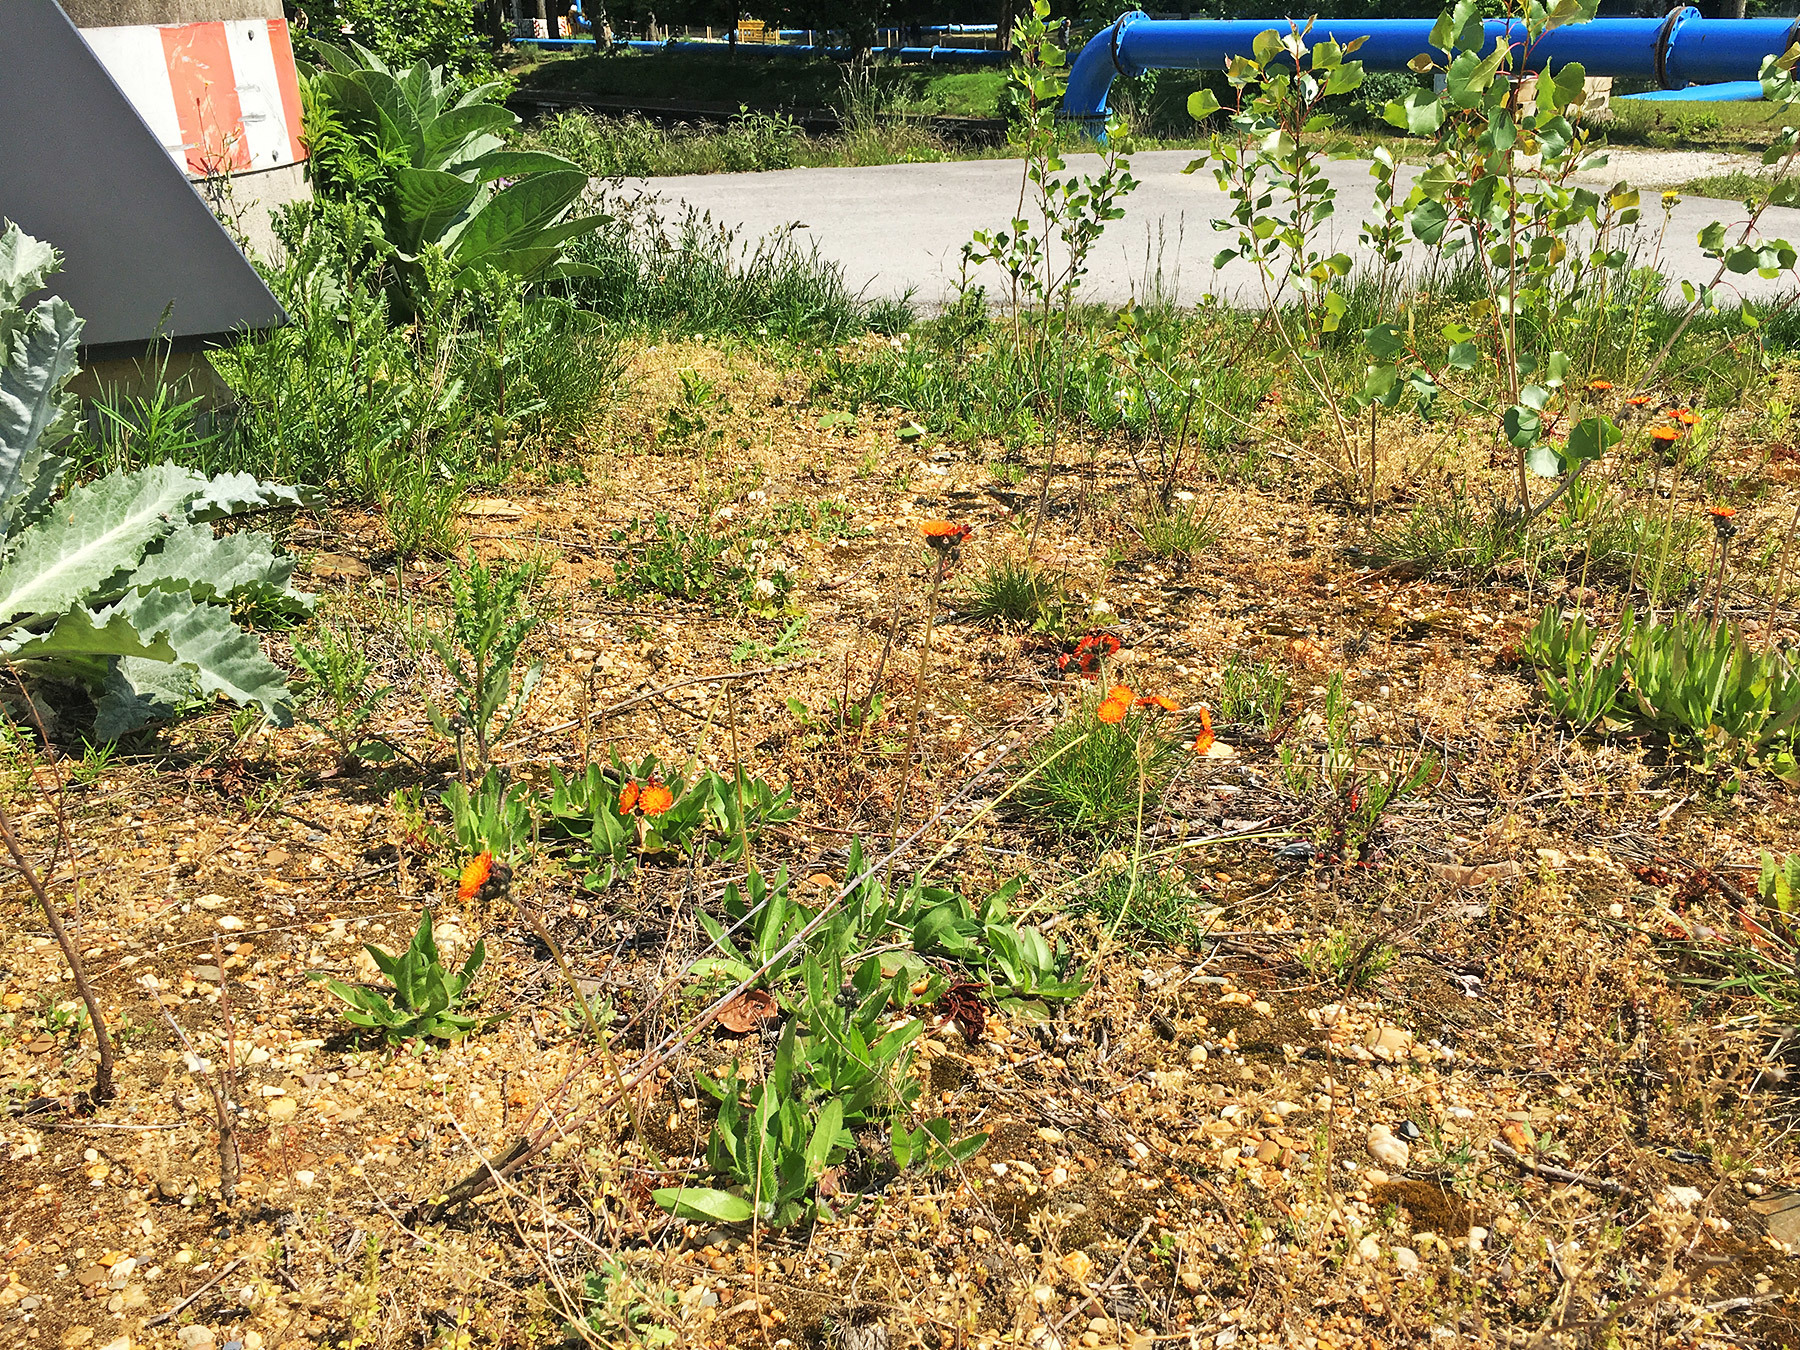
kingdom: Plantae
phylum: Tracheophyta
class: Magnoliopsida
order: Asterales
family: Asteraceae
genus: Pilosella
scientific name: Pilosella aurantiaca
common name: Fox-and-cubs
